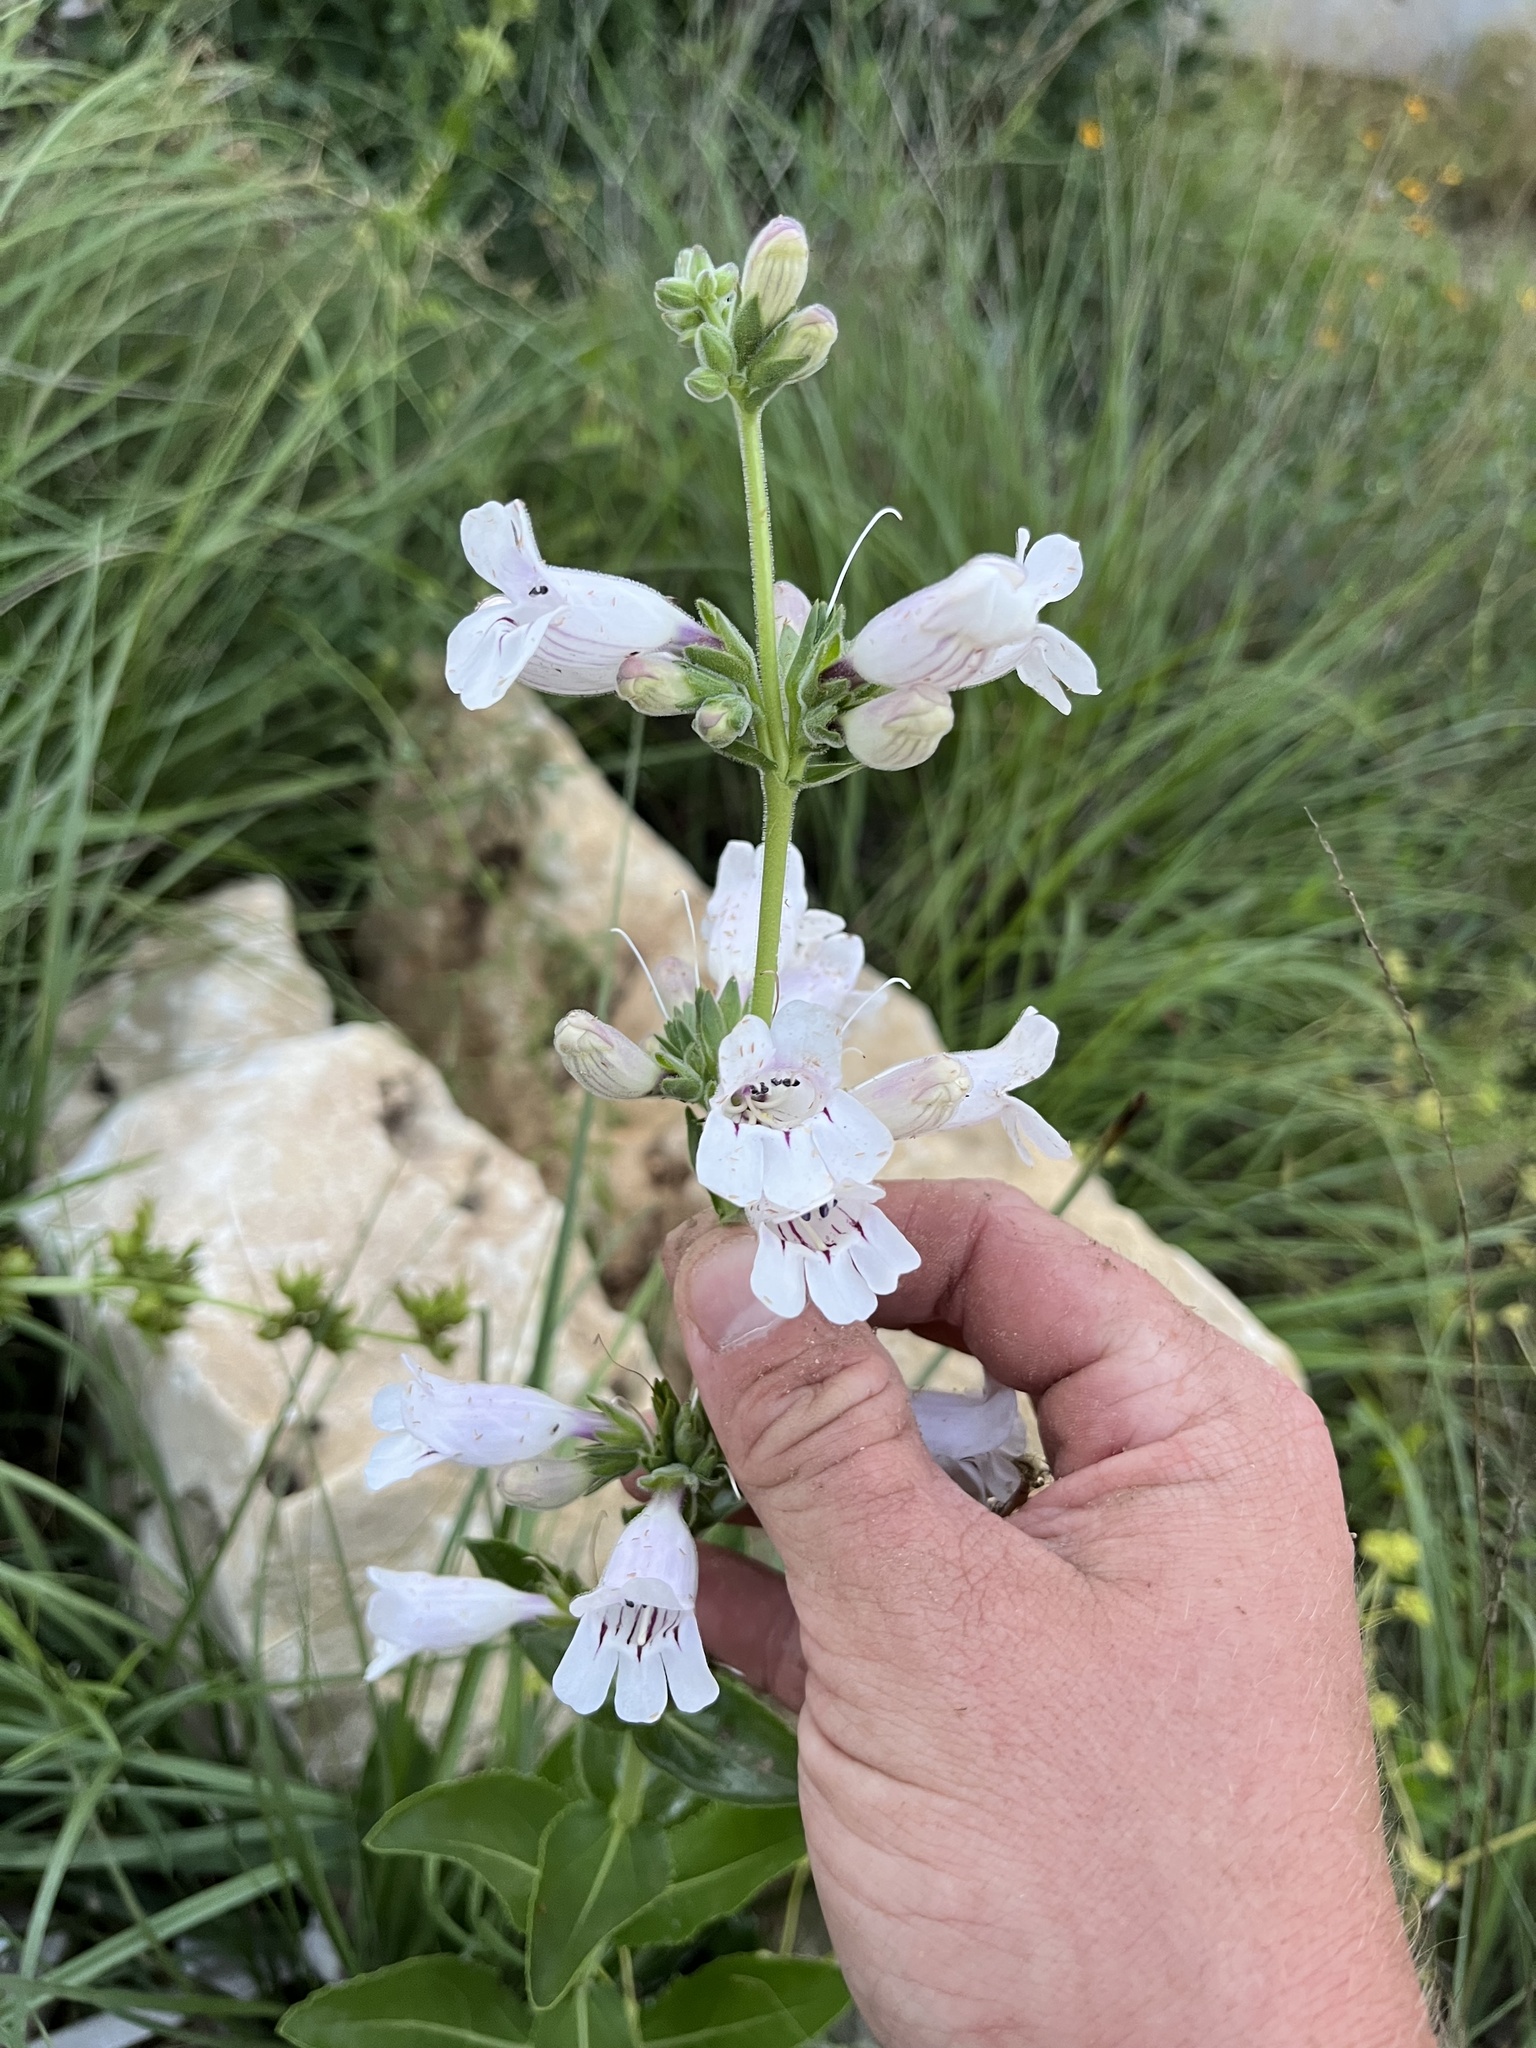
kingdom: Plantae
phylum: Tracheophyta
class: Magnoliopsida
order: Lamiales
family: Plantaginaceae
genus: Penstemon
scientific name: Penstemon cobaea
